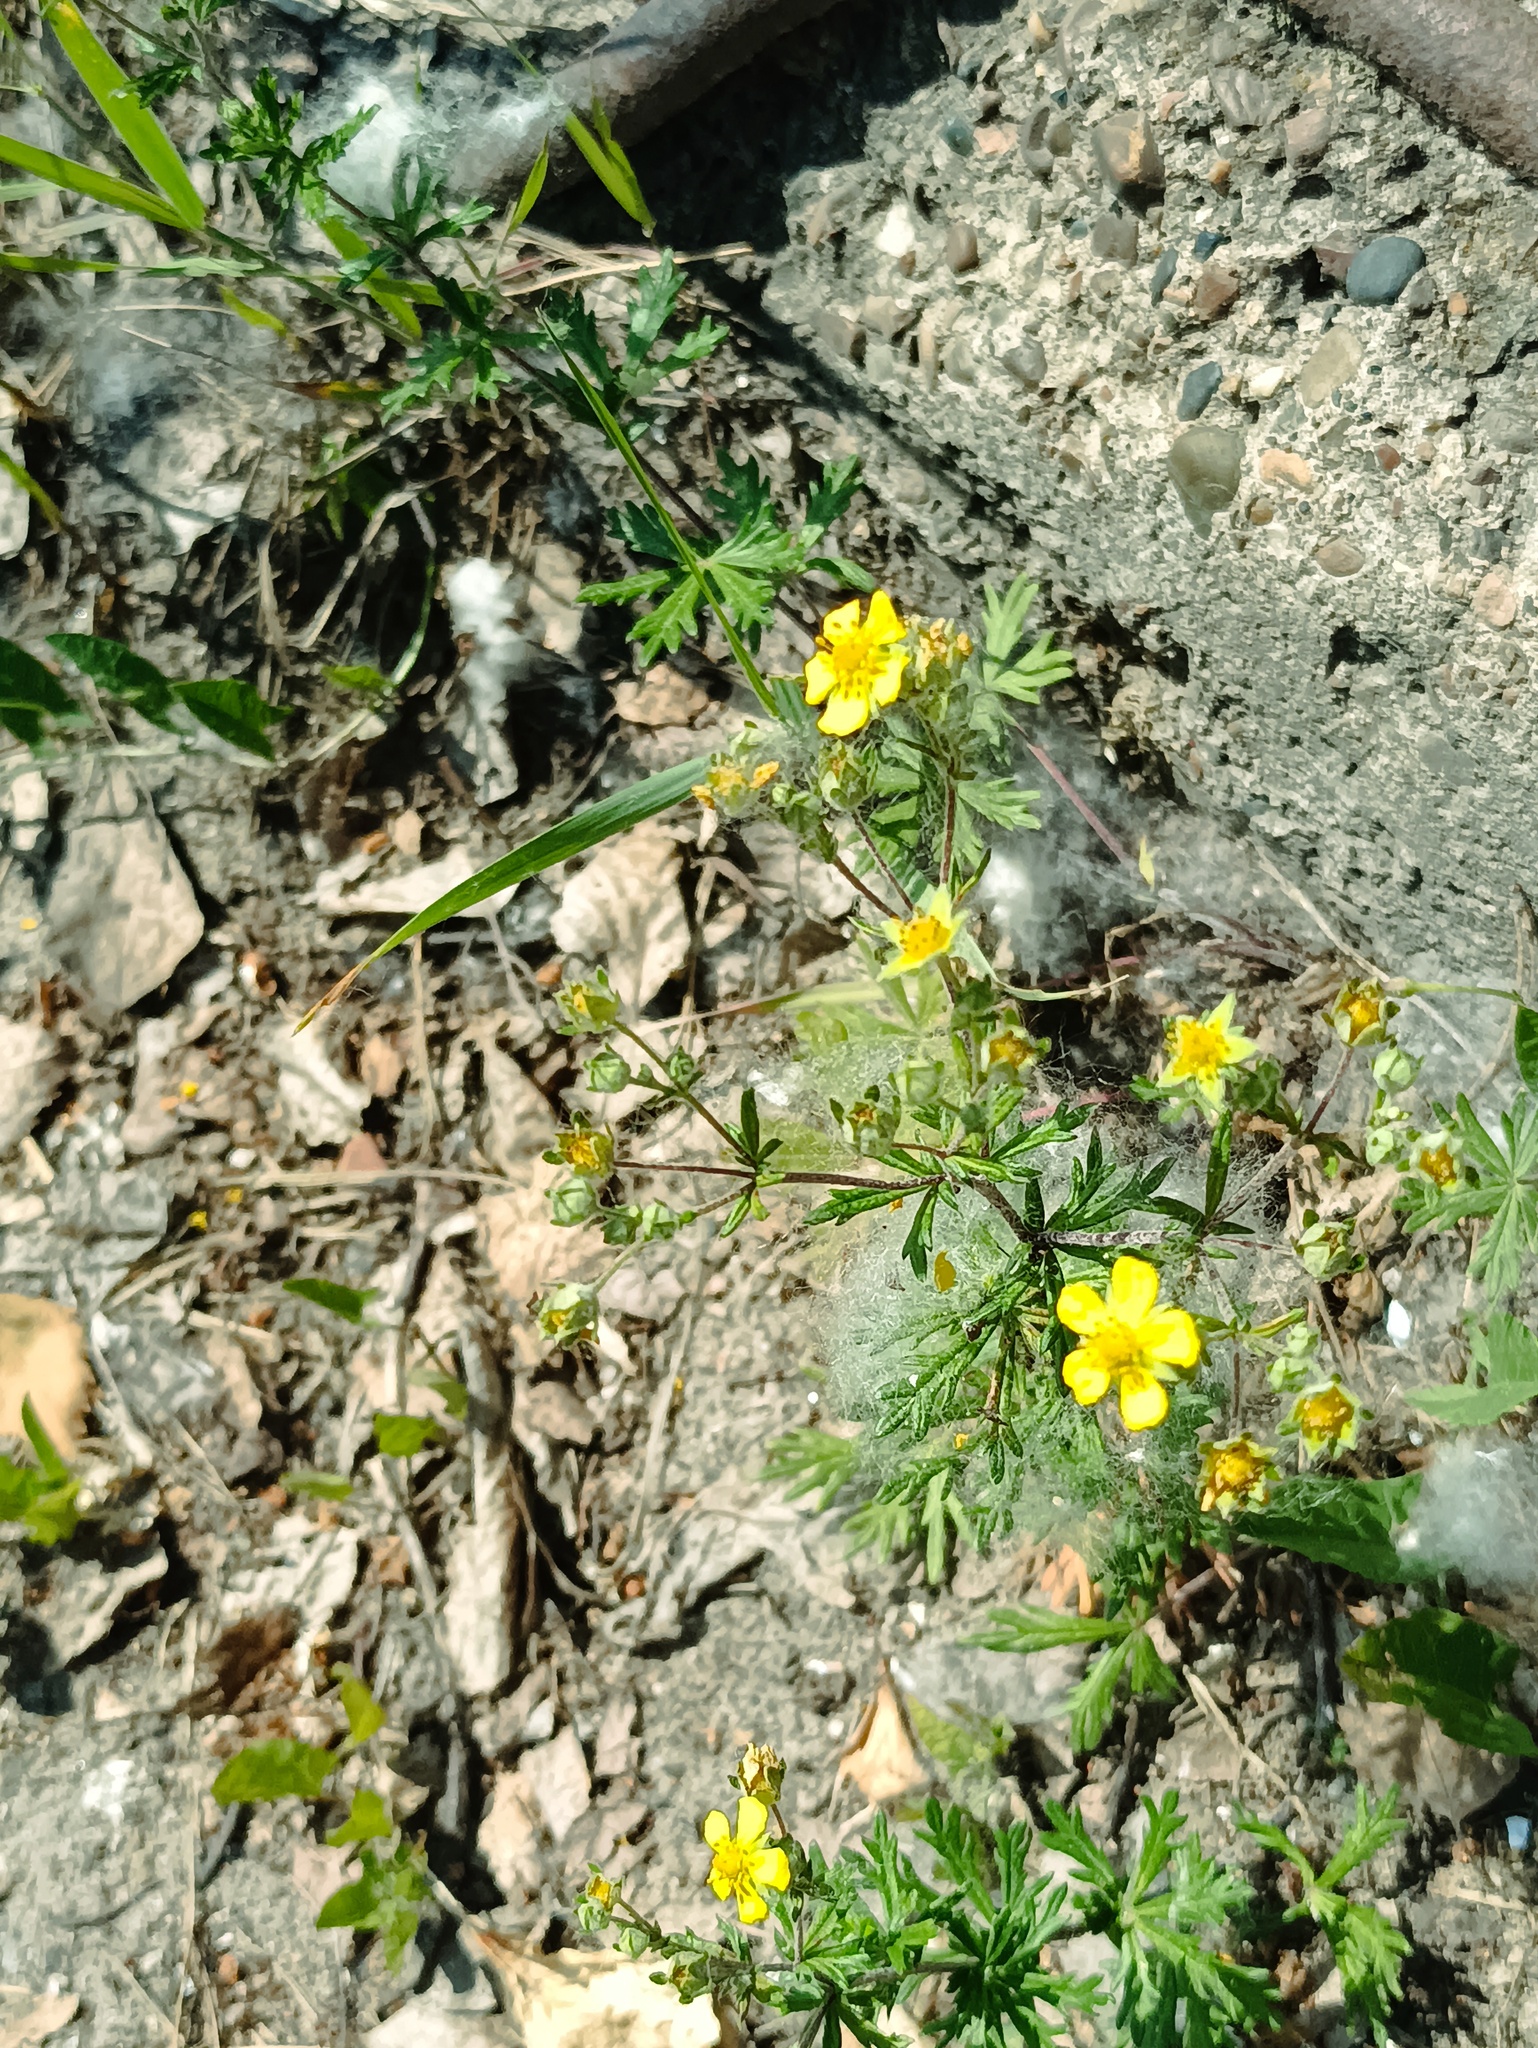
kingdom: Plantae
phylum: Tracheophyta
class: Magnoliopsida
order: Rosales
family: Rosaceae
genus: Potentilla
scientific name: Potentilla argentea
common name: Hoary cinquefoil
